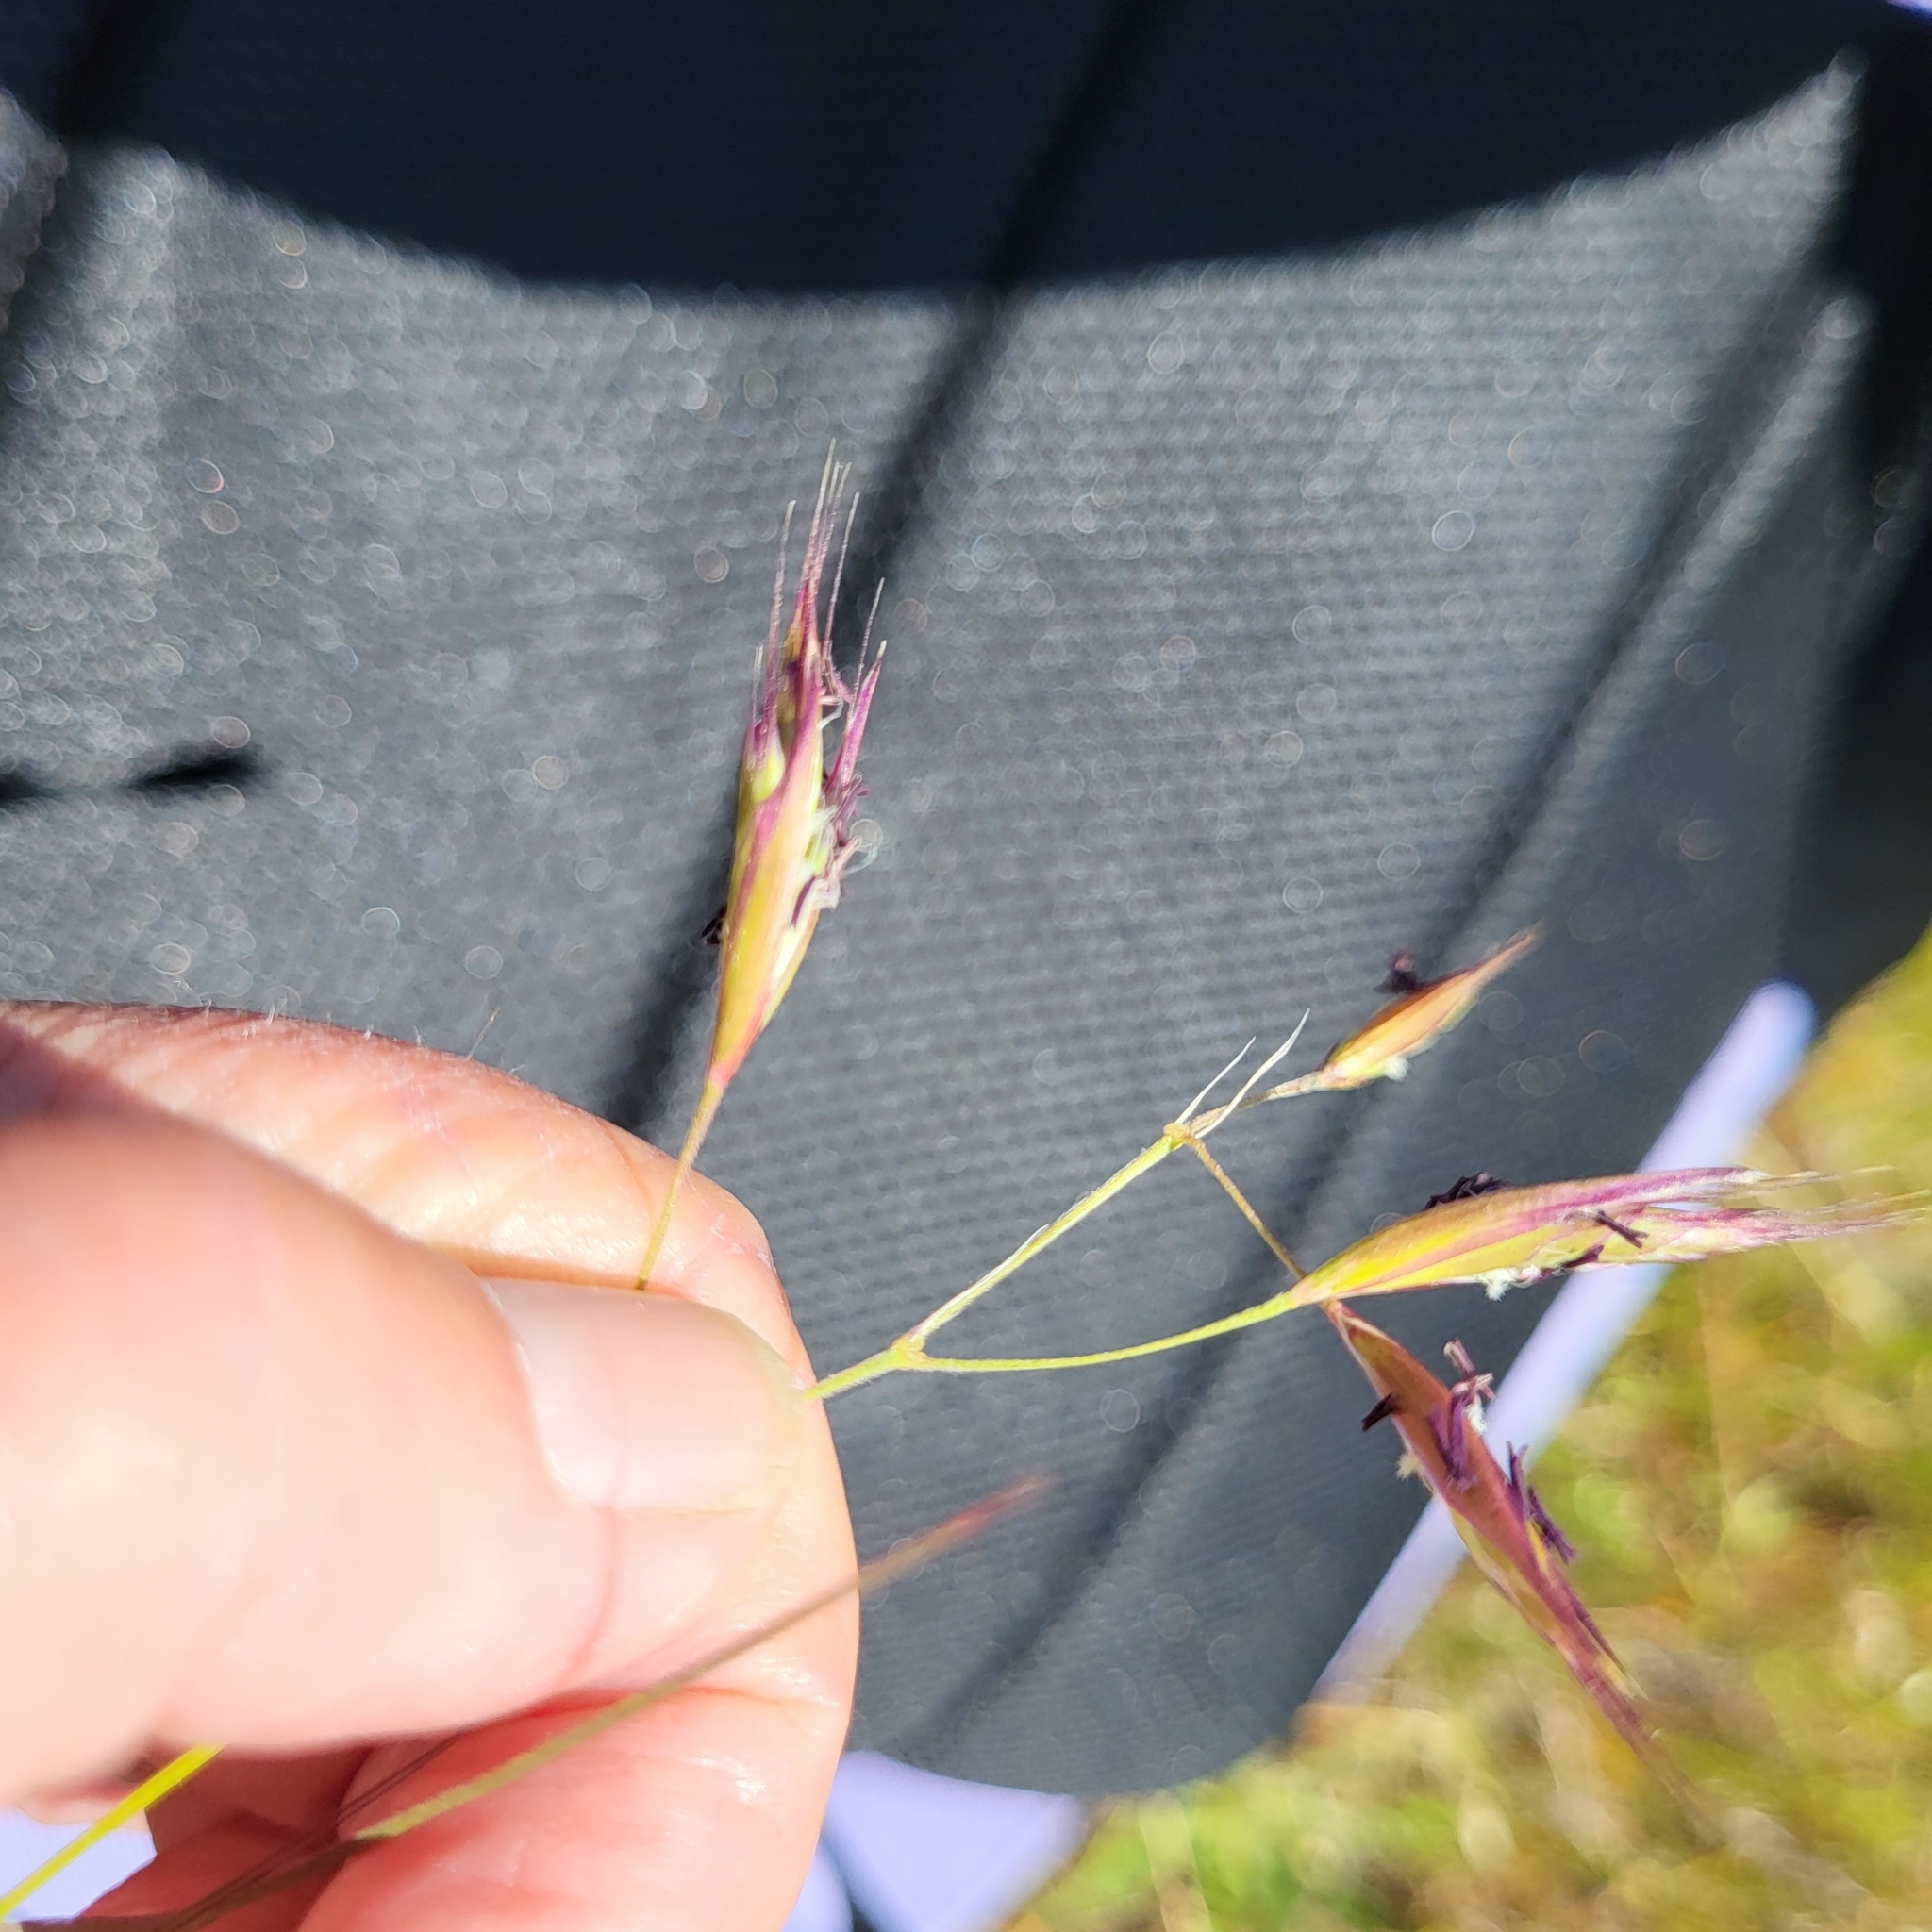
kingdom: Plantae
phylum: Tracheophyta
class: Liliopsida
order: Poales
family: Poaceae
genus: Danthonia
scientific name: Danthonia californica
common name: California oat grass
